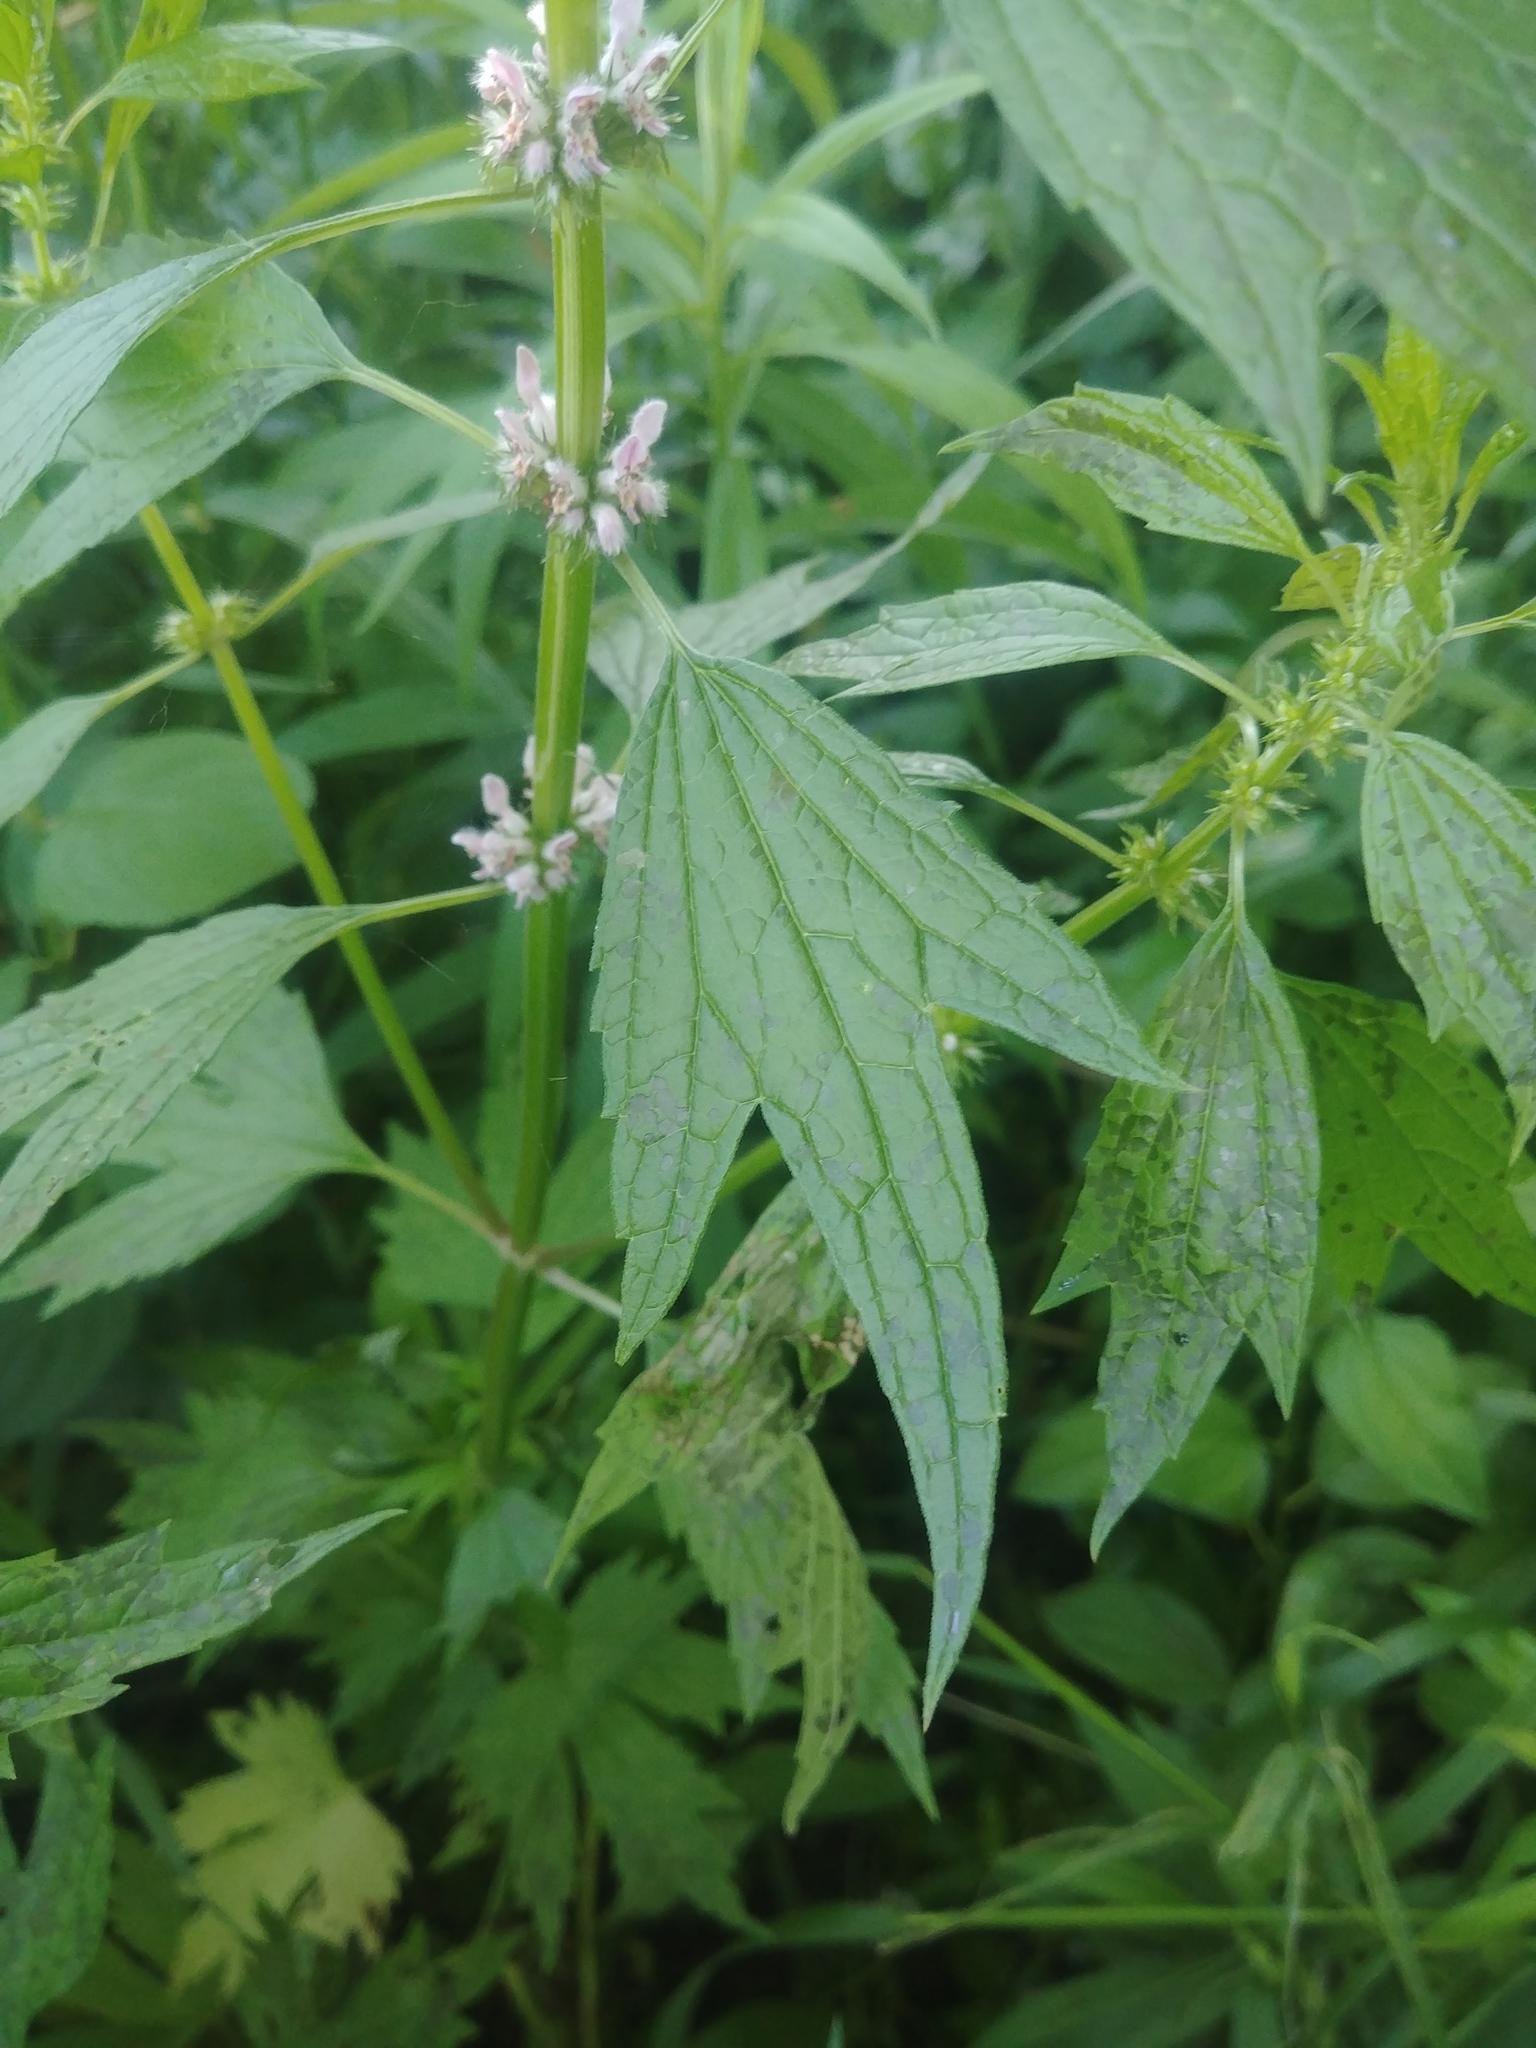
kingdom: Plantae
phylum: Tracheophyta
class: Magnoliopsida
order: Lamiales
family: Lamiaceae
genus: Leonurus
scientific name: Leonurus cardiaca
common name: Motherwort
